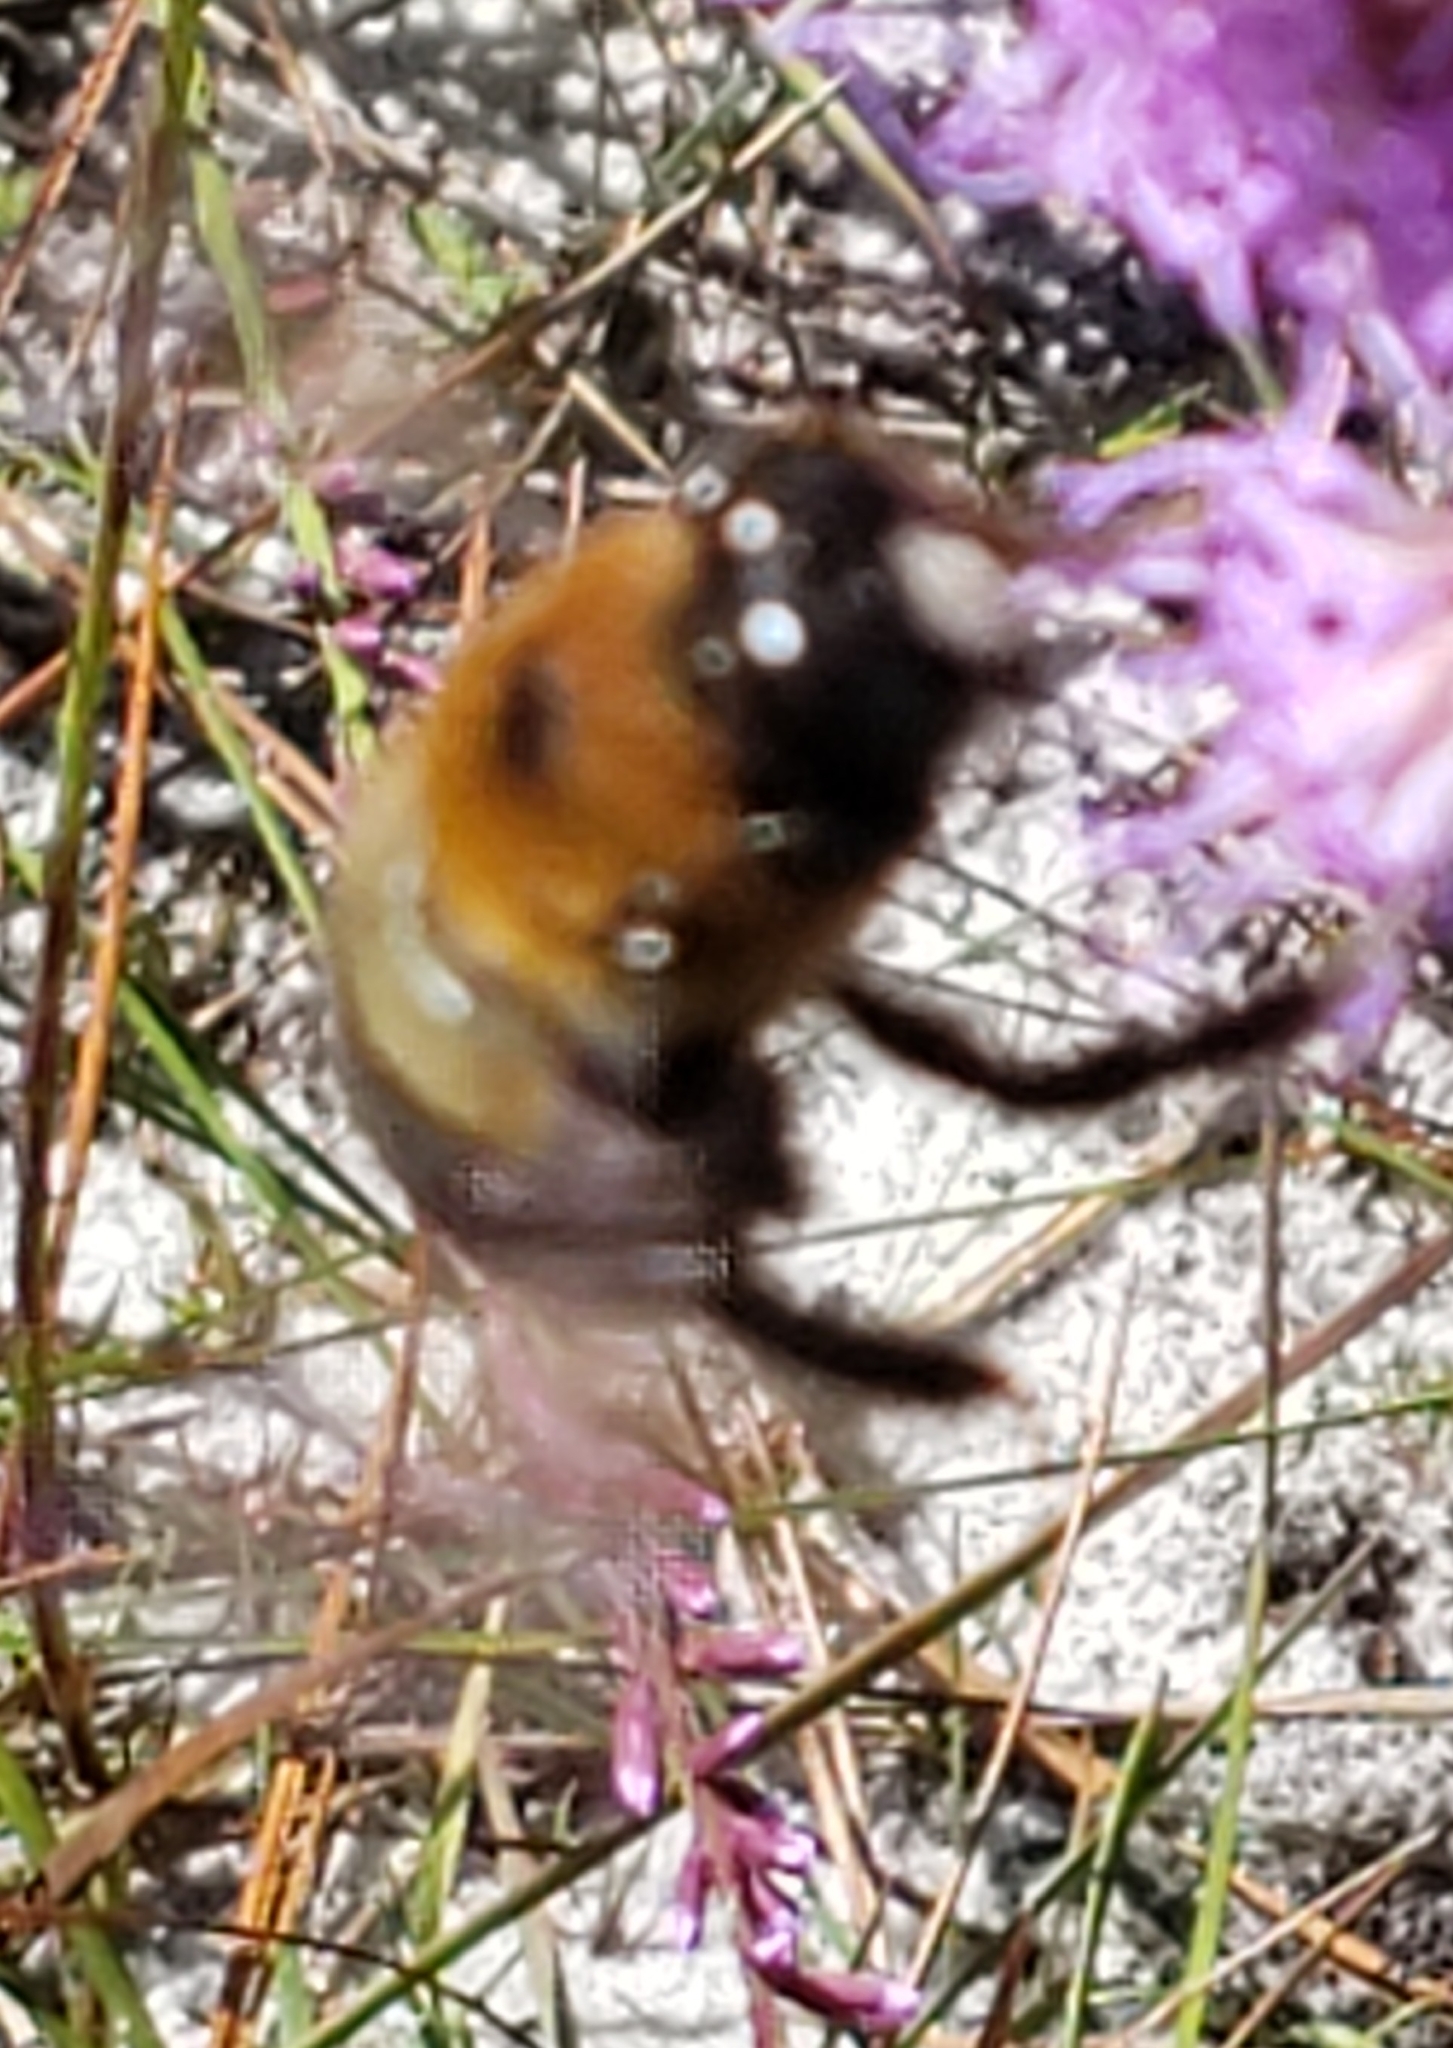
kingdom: Animalia
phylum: Arthropoda
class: Insecta
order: Hymenoptera
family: Apidae
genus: Xylocopa
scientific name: Xylocopa virginica
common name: Carpenter bee
